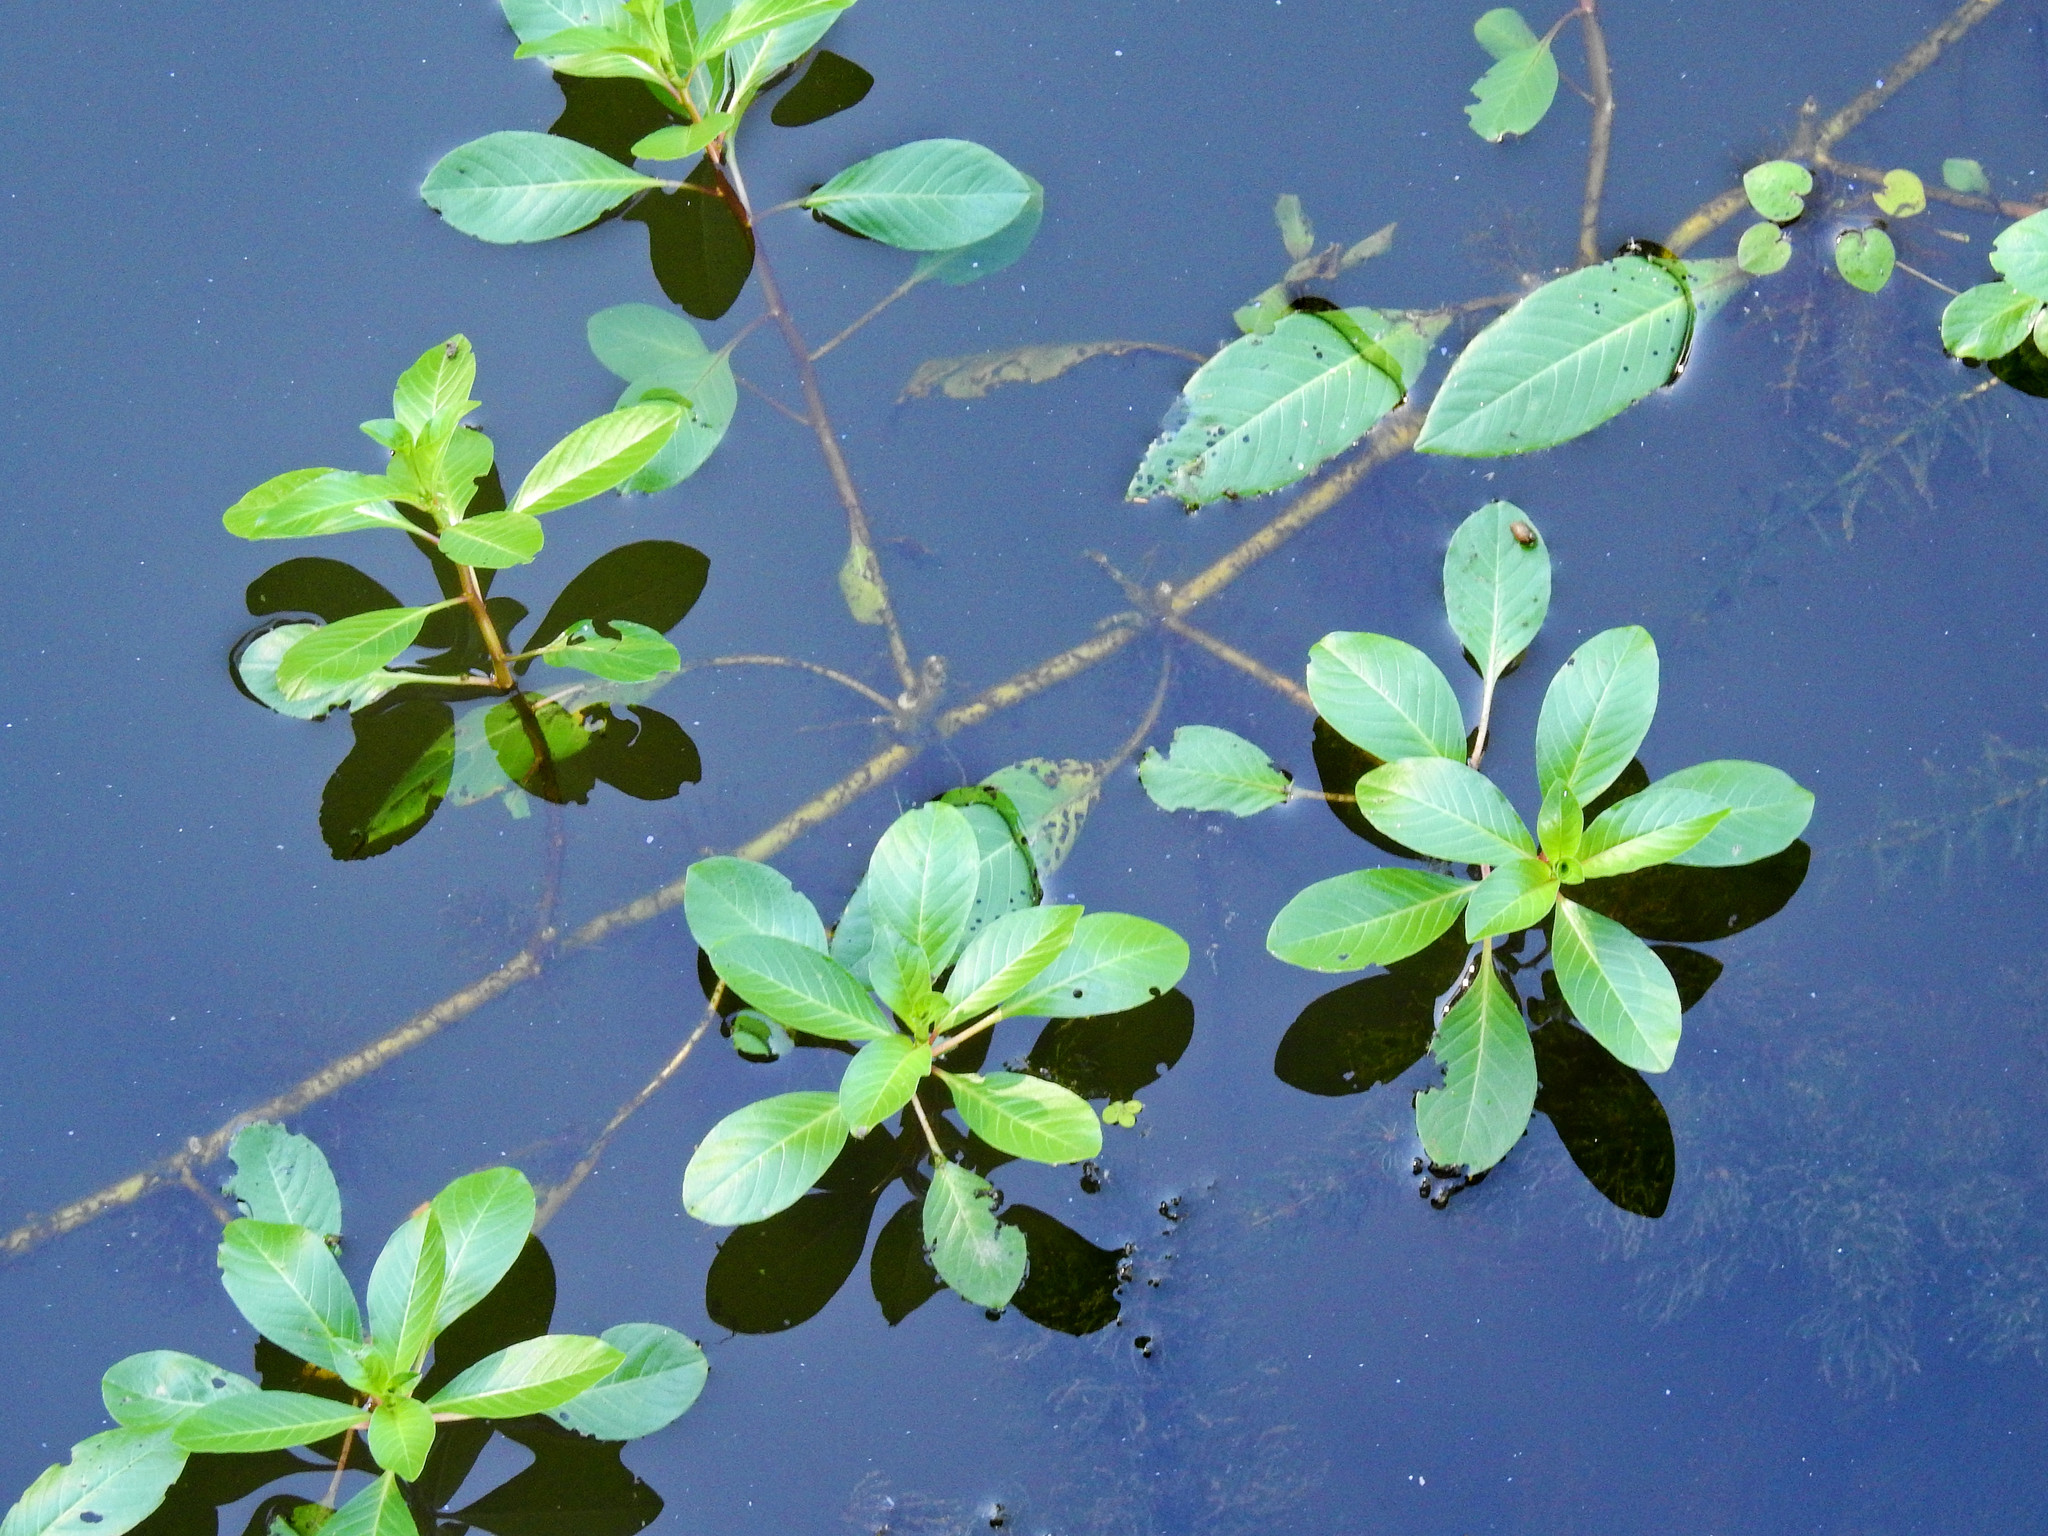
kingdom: Plantae
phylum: Tracheophyta
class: Magnoliopsida
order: Myrtales
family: Onagraceae
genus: Ludwigia
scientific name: Ludwigia hexapetala
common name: Water-primrose
